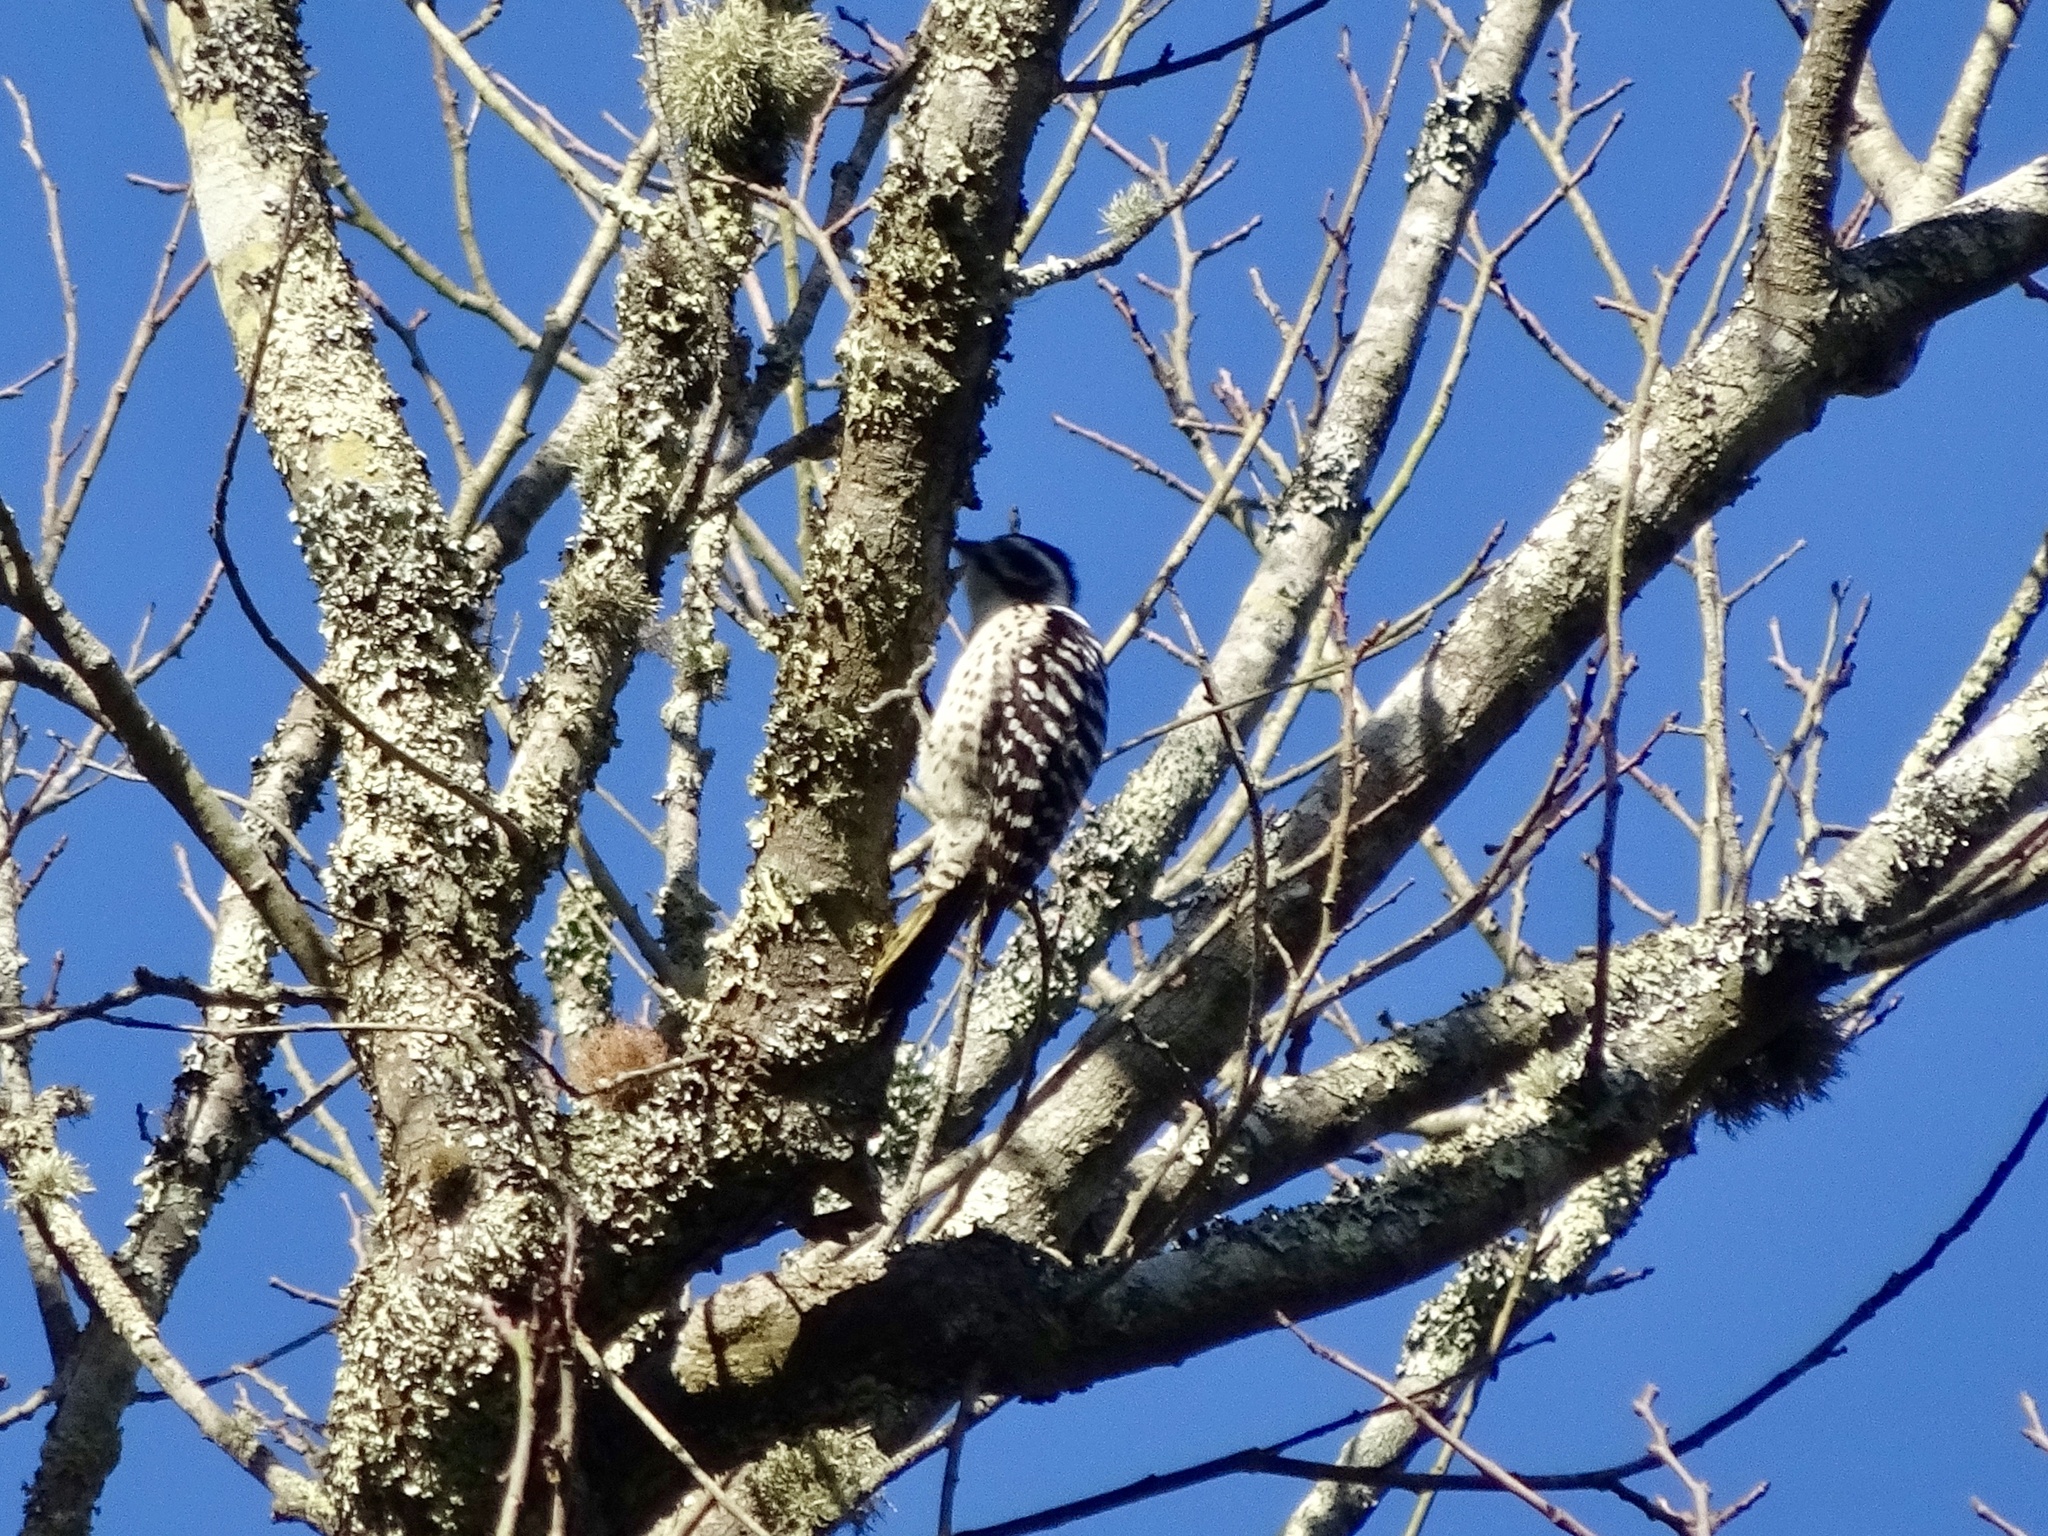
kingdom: Animalia
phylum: Chordata
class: Aves
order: Piciformes
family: Picidae
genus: Dryobates
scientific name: Dryobates nuttallii
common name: Nuttall's woodpecker
